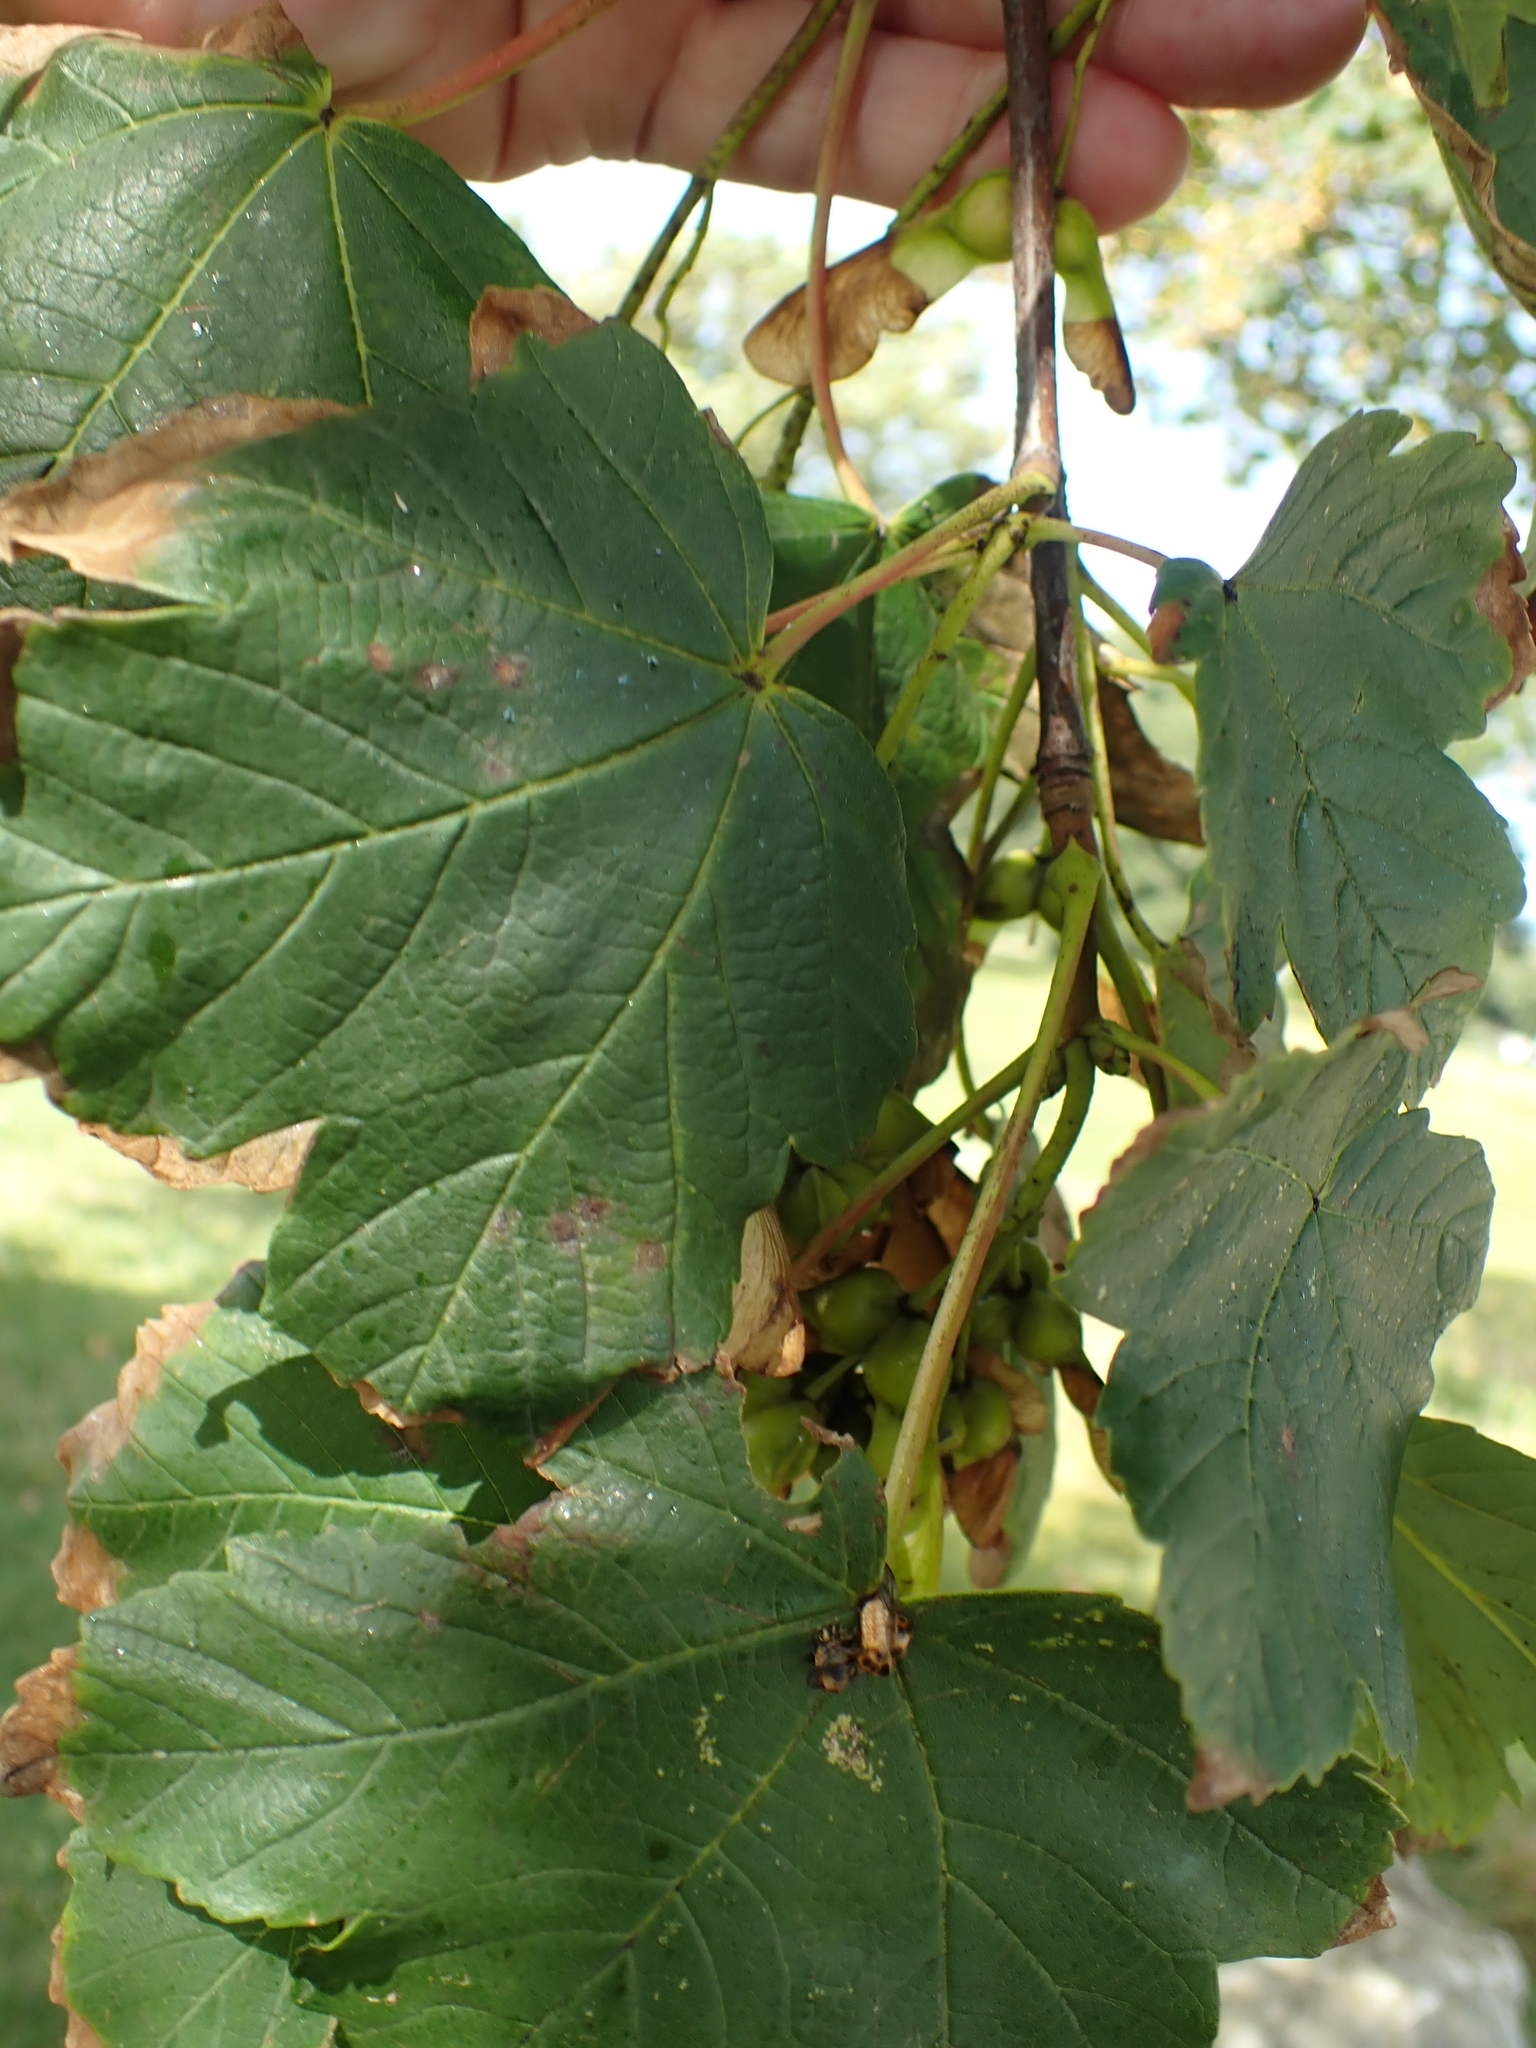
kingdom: Plantae
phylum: Tracheophyta
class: Magnoliopsida
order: Sapindales
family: Sapindaceae
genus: Acer
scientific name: Acer pseudoplatanus
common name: Sycamore
